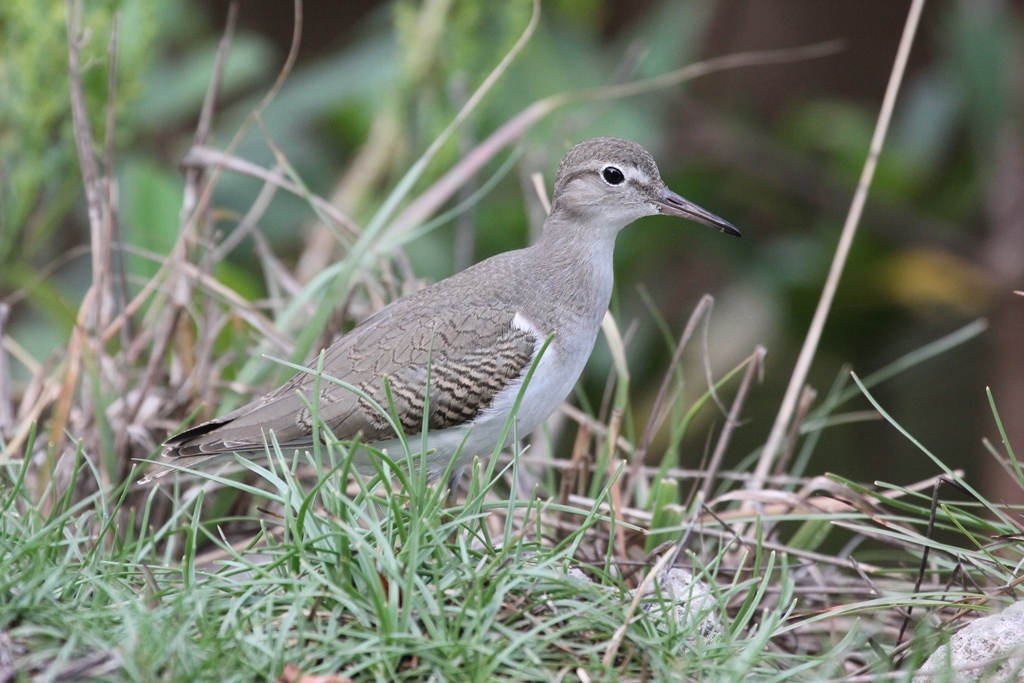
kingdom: Animalia
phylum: Chordata
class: Aves
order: Charadriiformes
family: Scolopacidae
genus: Actitis
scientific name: Actitis macularius
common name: Spotted sandpiper
